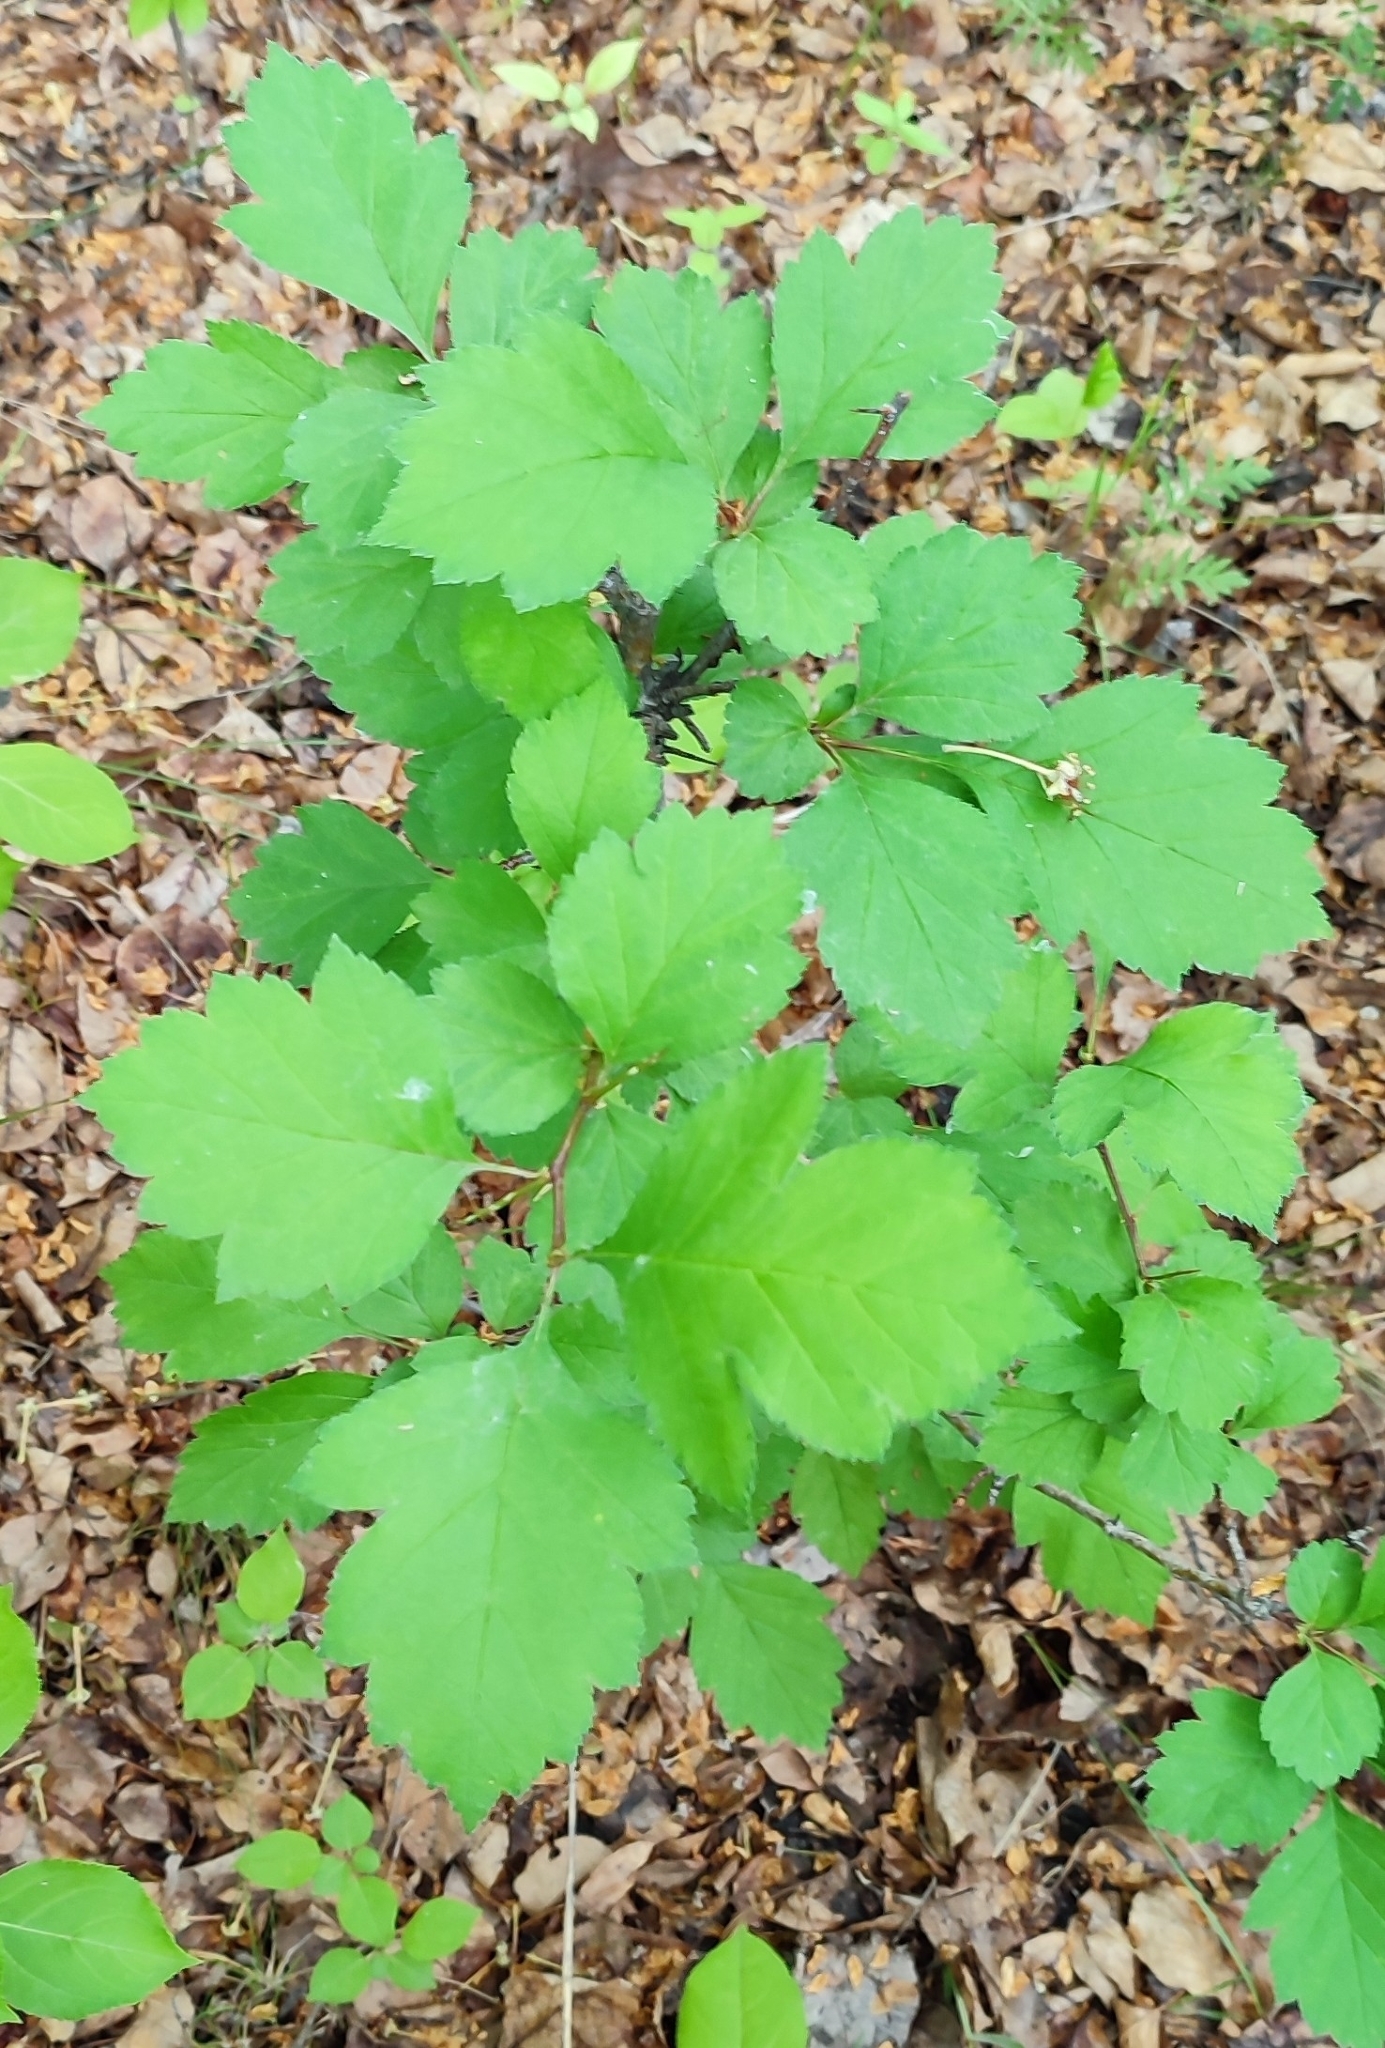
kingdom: Plantae
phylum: Tracheophyta
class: Magnoliopsida
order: Rosales
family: Rosaceae
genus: Crataegus
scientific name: Crataegus sanguinea
